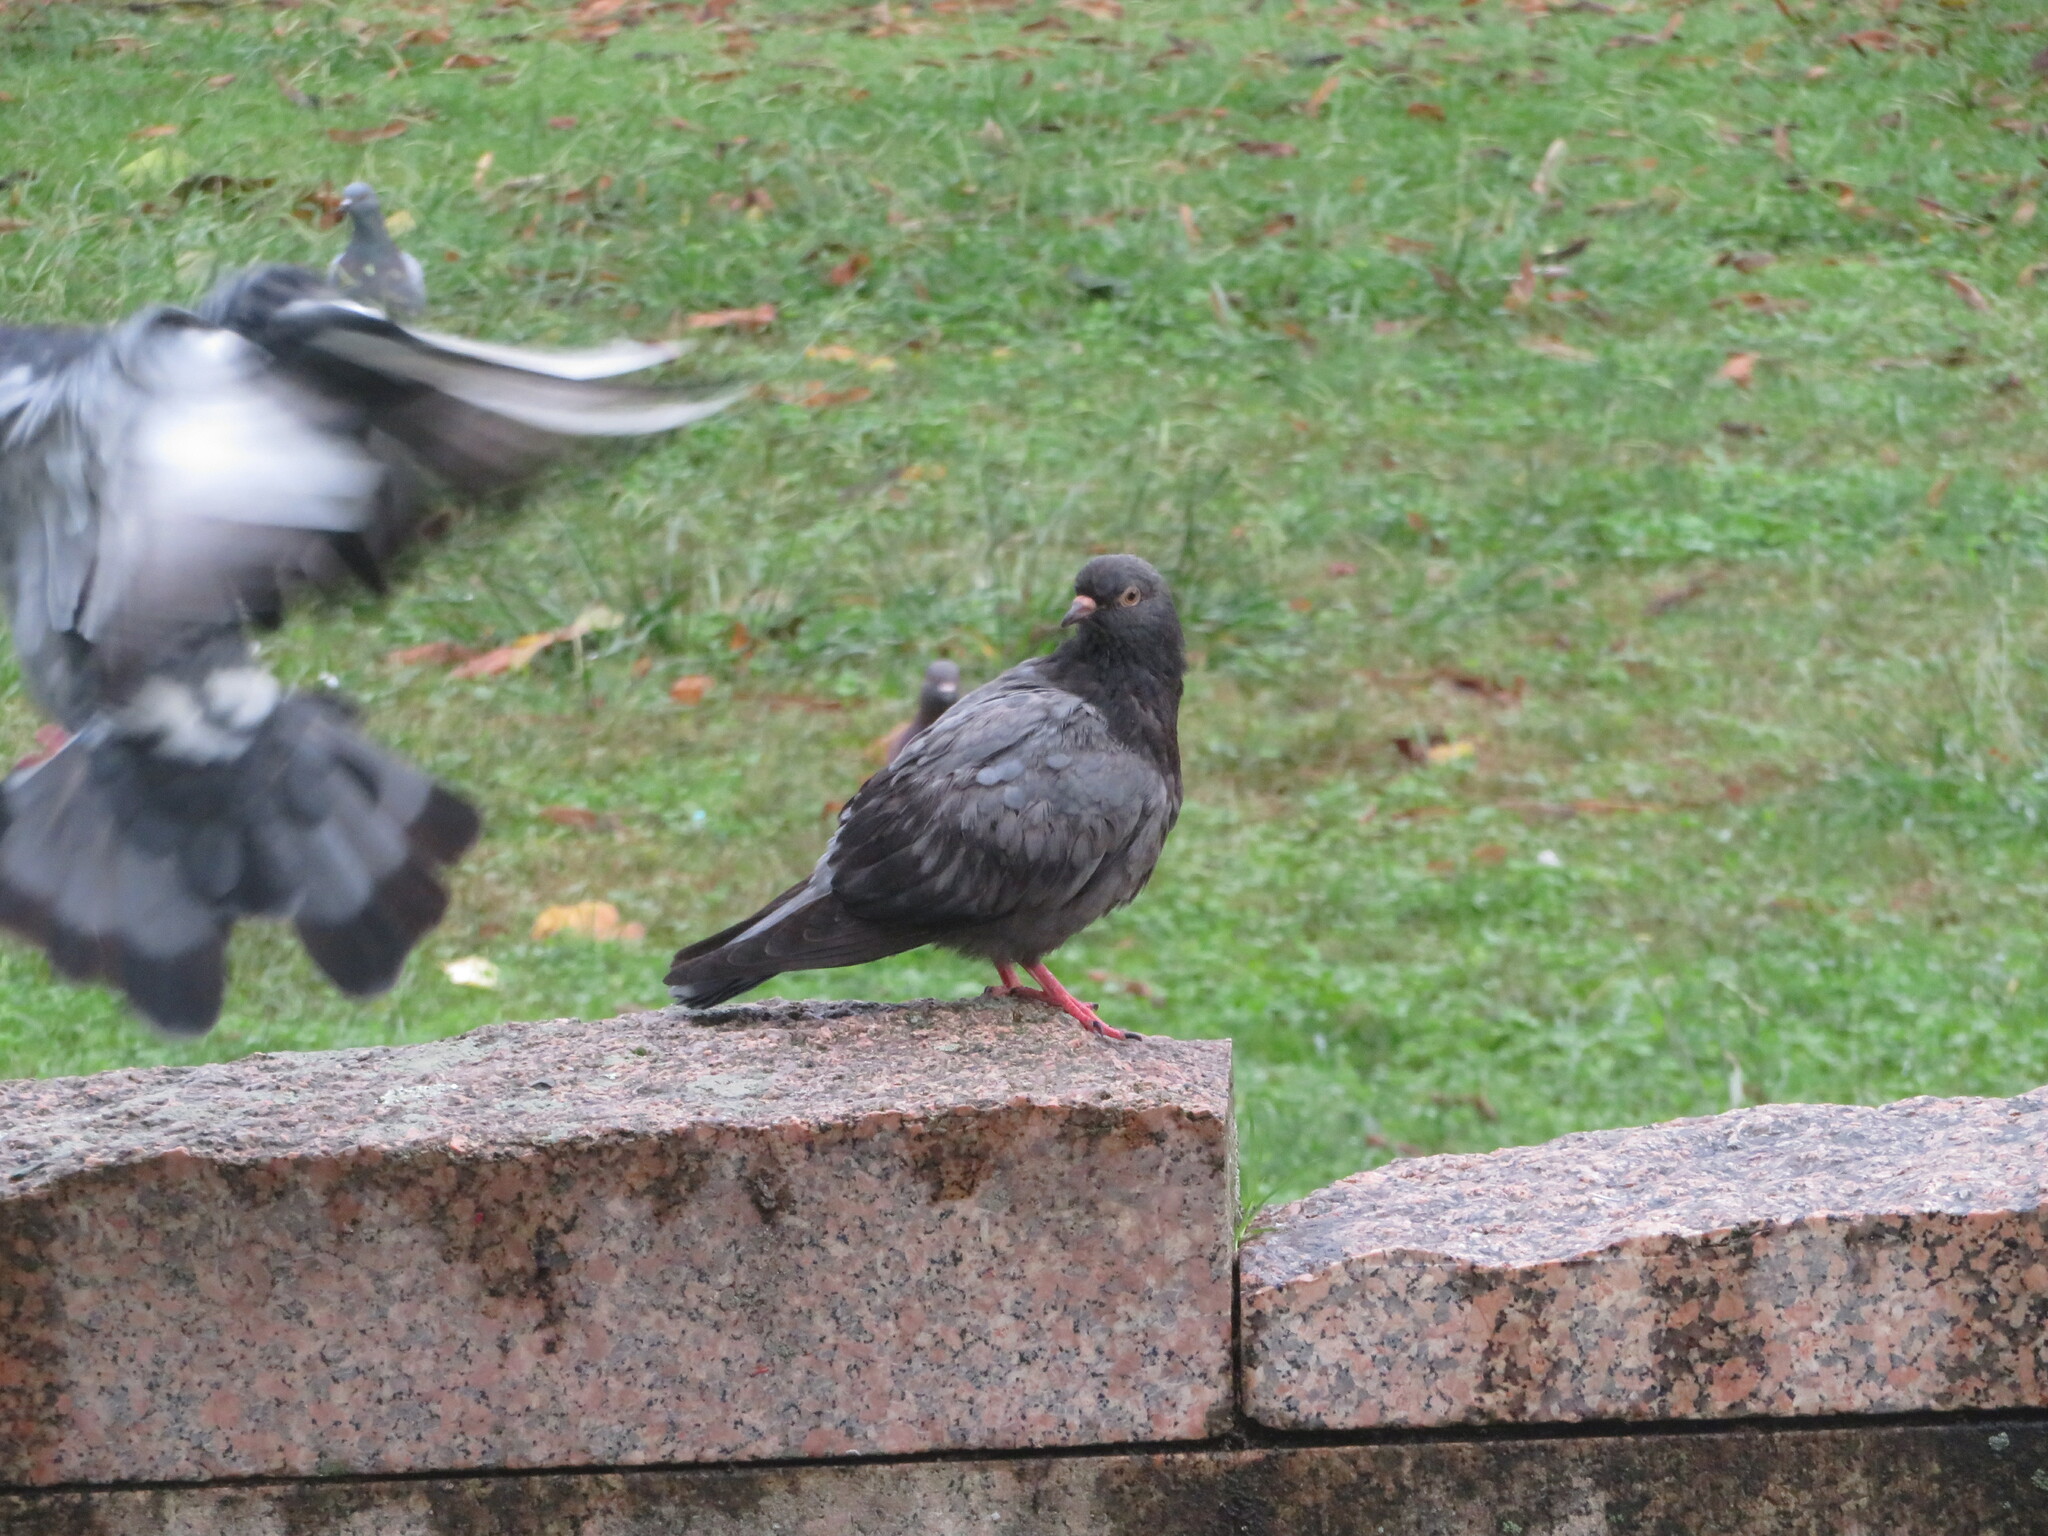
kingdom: Animalia
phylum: Chordata
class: Aves
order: Columbiformes
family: Columbidae
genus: Columba
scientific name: Columba livia
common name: Rock pigeon
